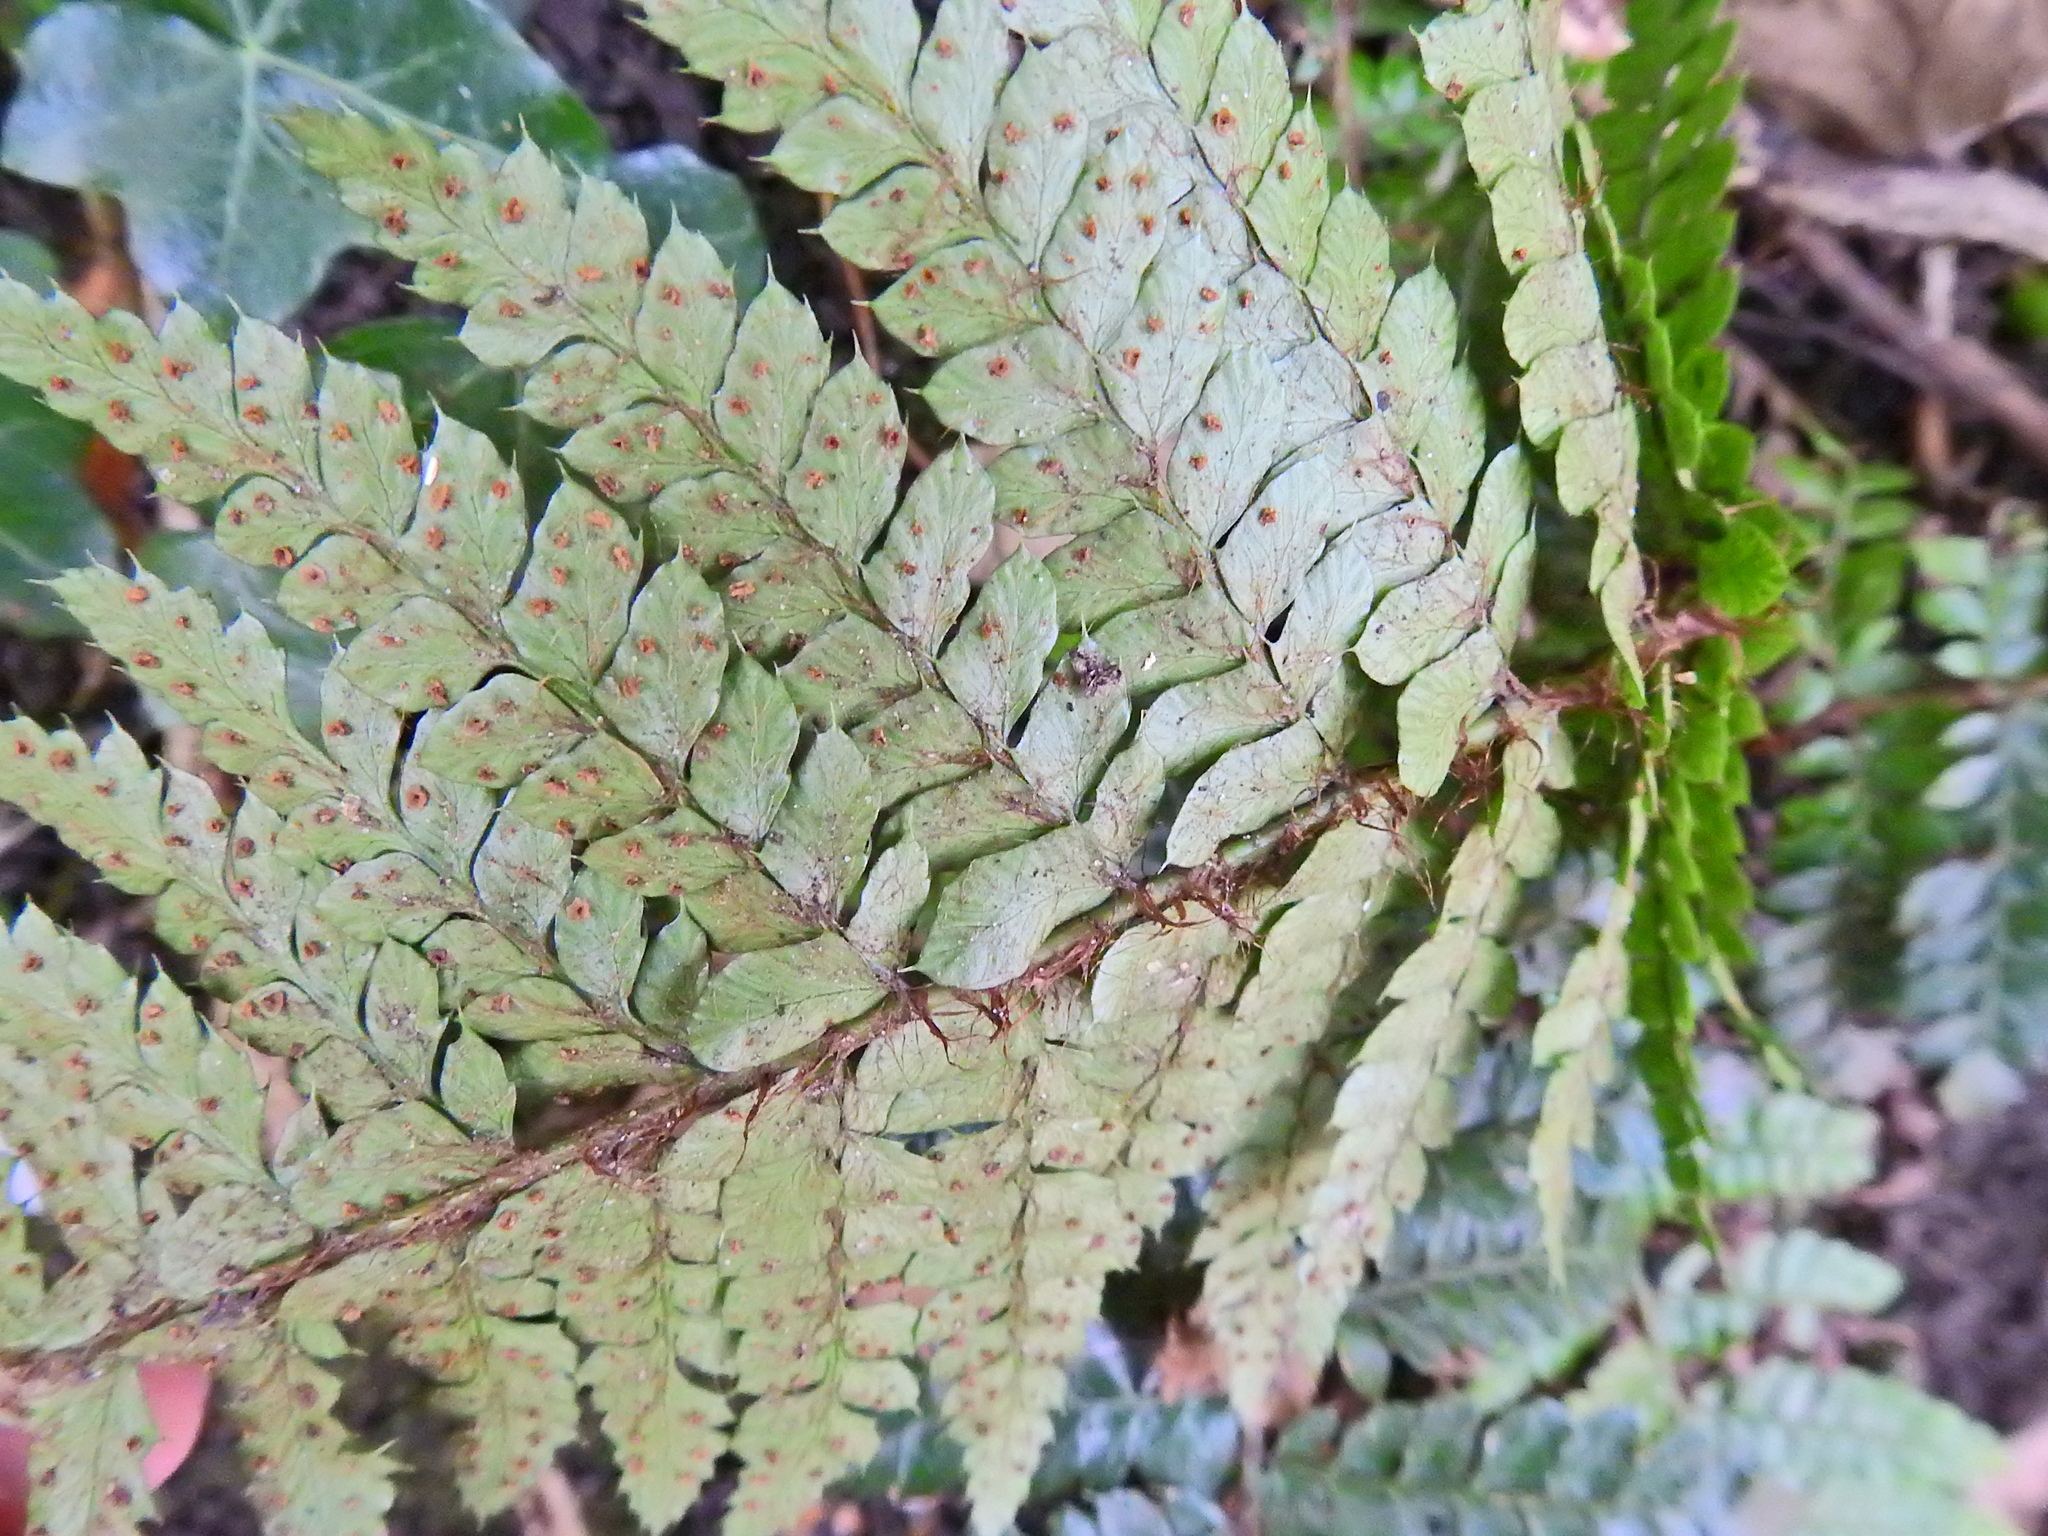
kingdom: Plantae
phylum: Tracheophyta
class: Polypodiopsida
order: Polypodiales
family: Dryopteridaceae
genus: Polystichum
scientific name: Polystichum luctuosum
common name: Korean rockfern
